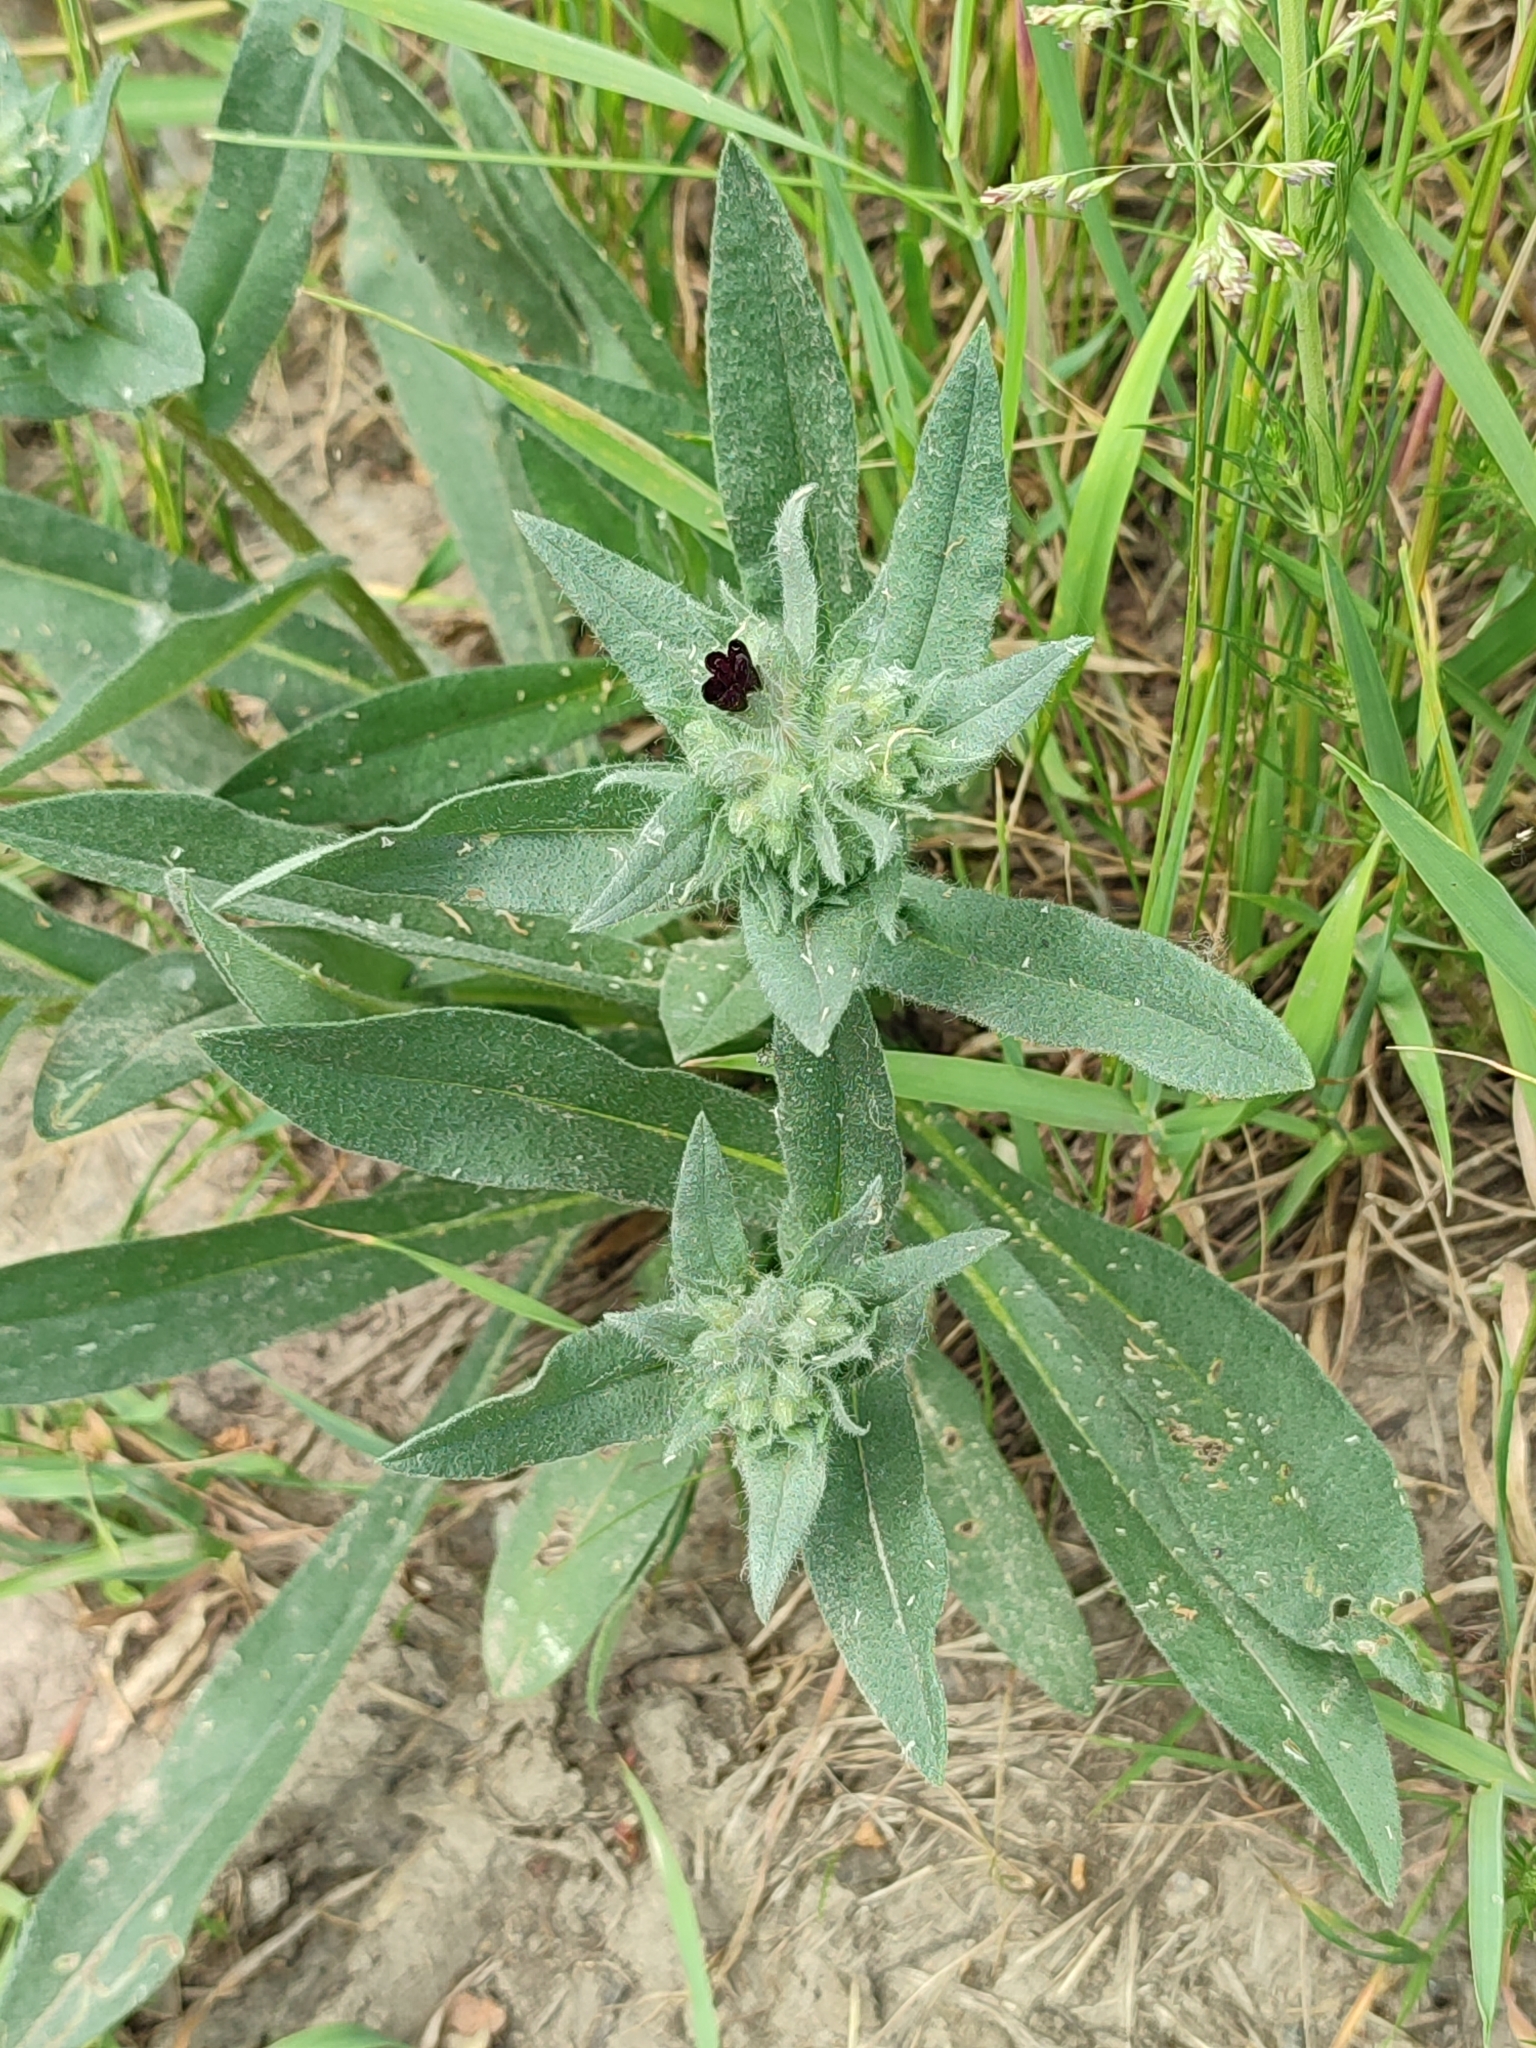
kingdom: Plantae
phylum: Tracheophyta
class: Magnoliopsida
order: Boraginales
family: Boraginaceae
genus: Nonea
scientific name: Nonea pulla
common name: Brown nonea
